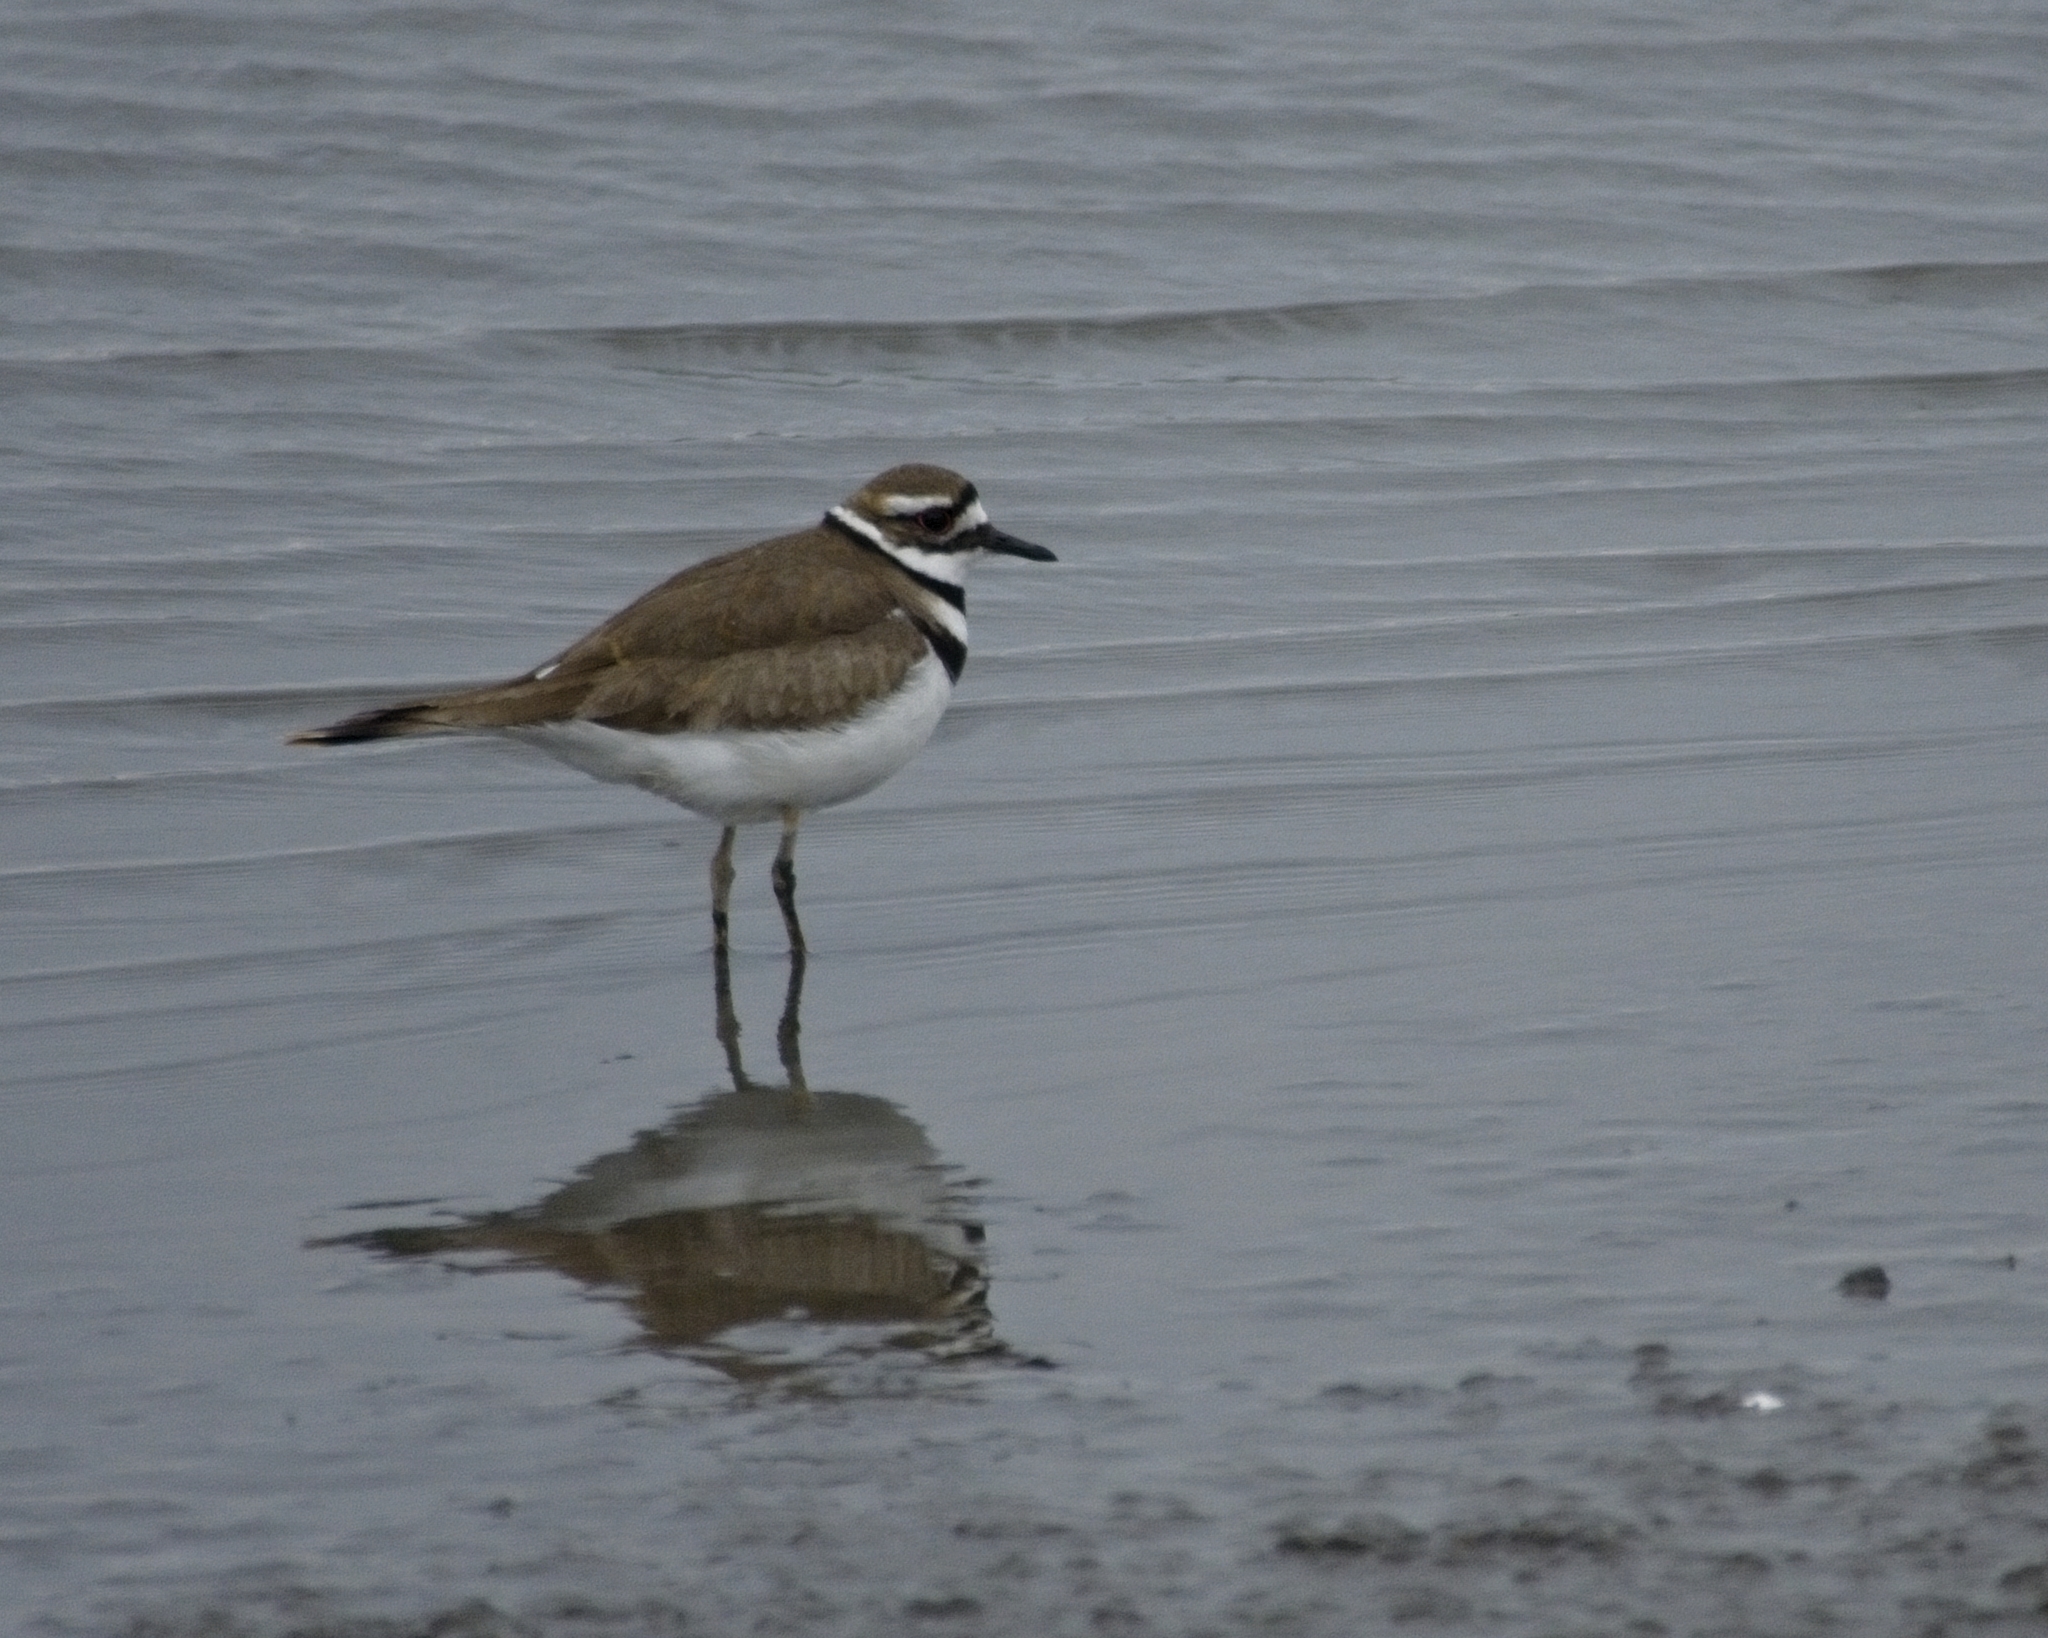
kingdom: Animalia
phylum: Chordata
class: Aves
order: Charadriiformes
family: Charadriidae
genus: Charadrius
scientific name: Charadrius vociferus
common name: Killdeer
